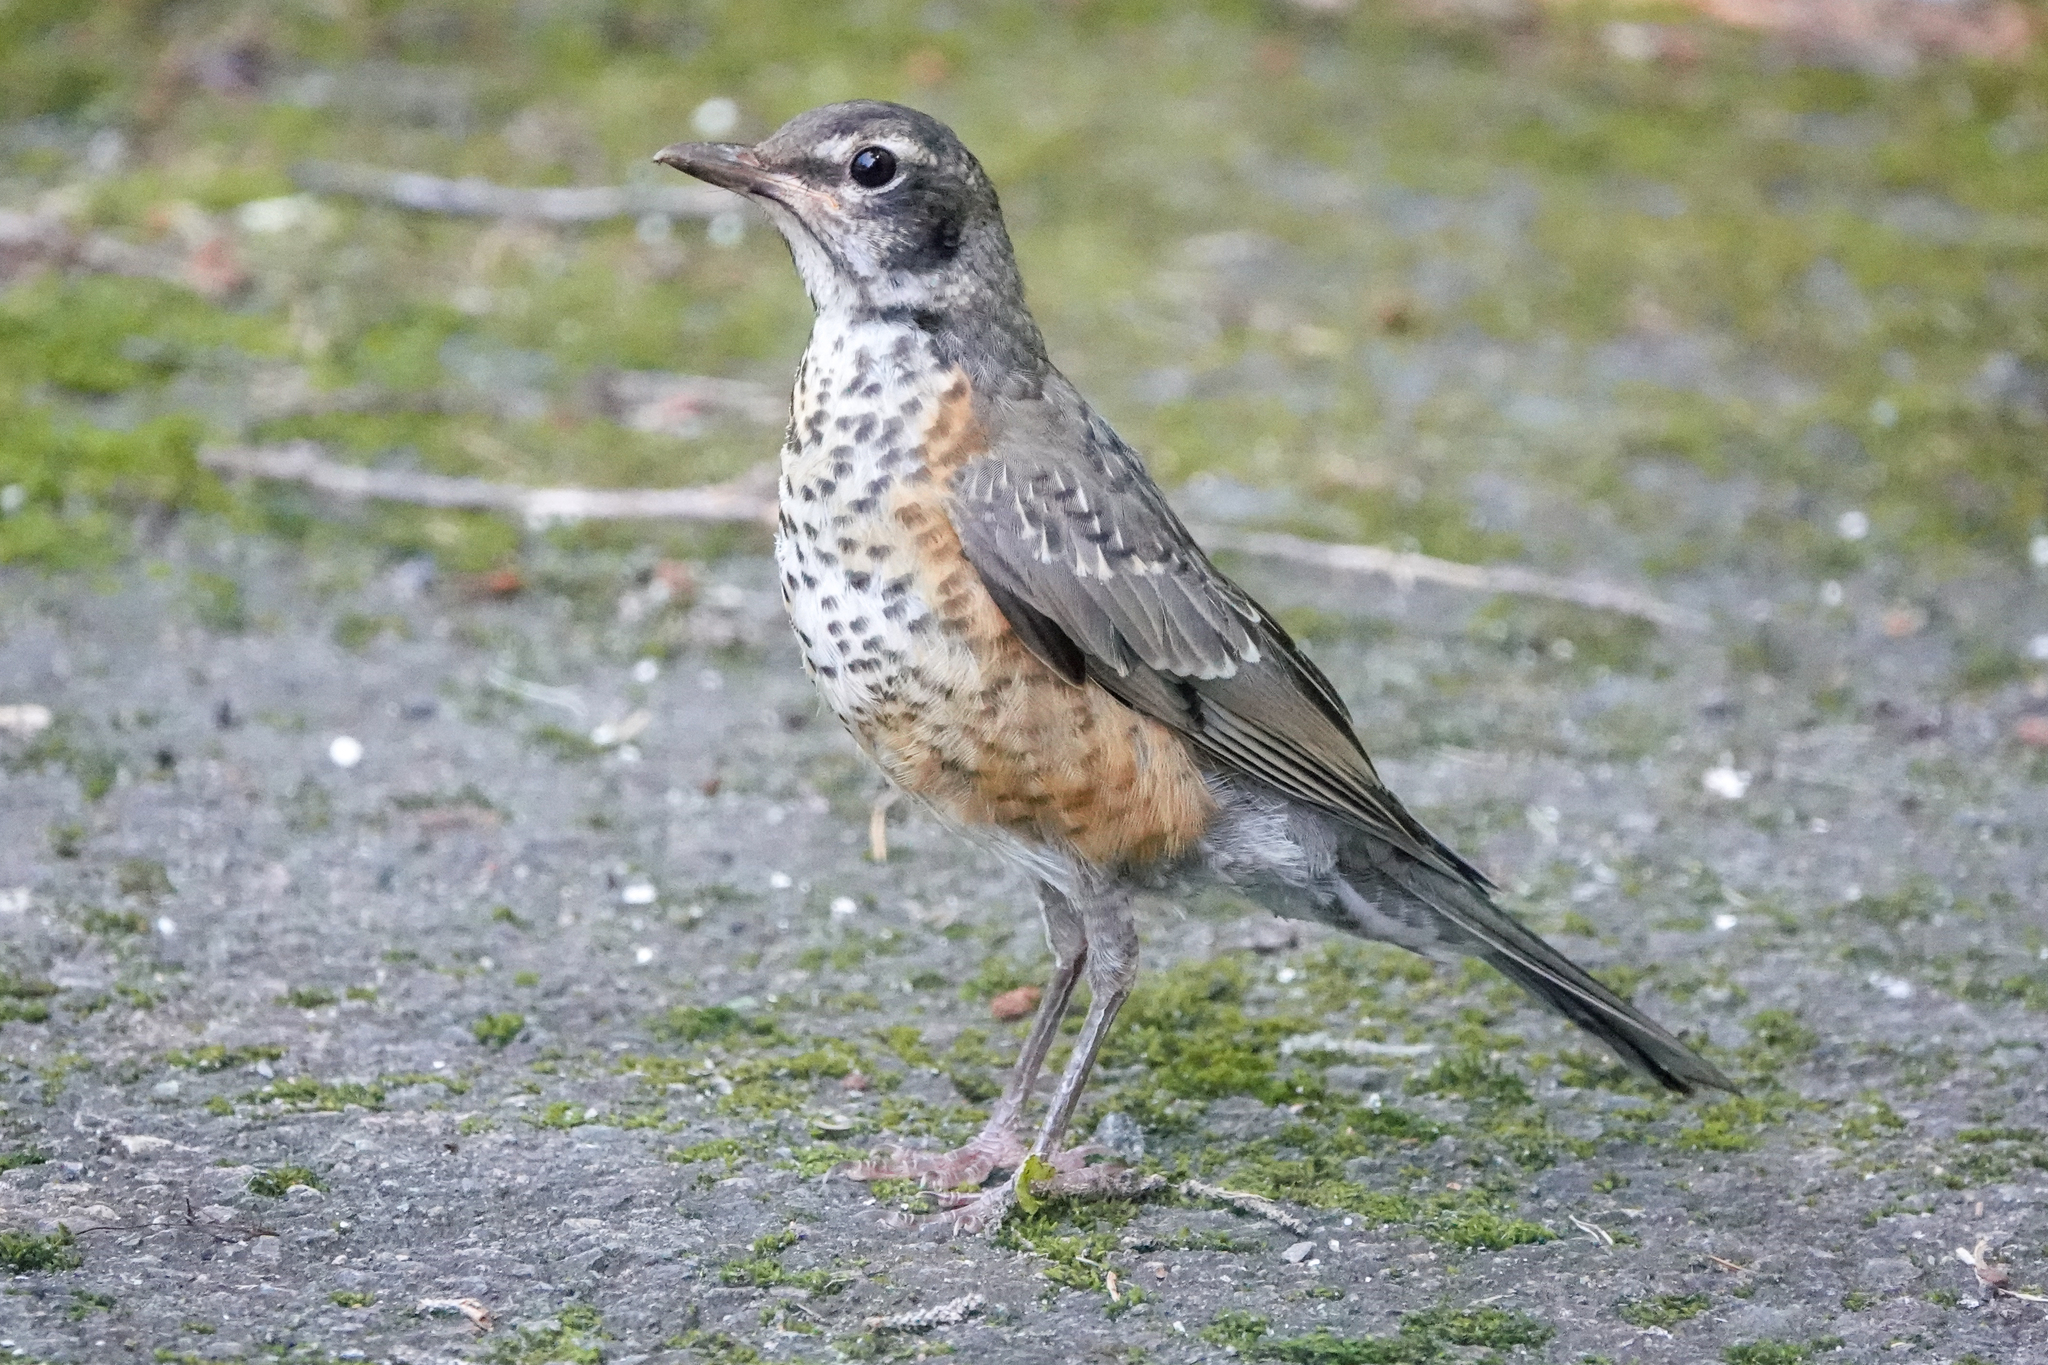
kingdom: Animalia
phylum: Chordata
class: Aves
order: Passeriformes
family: Turdidae
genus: Turdus
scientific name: Turdus migratorius
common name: American robin
